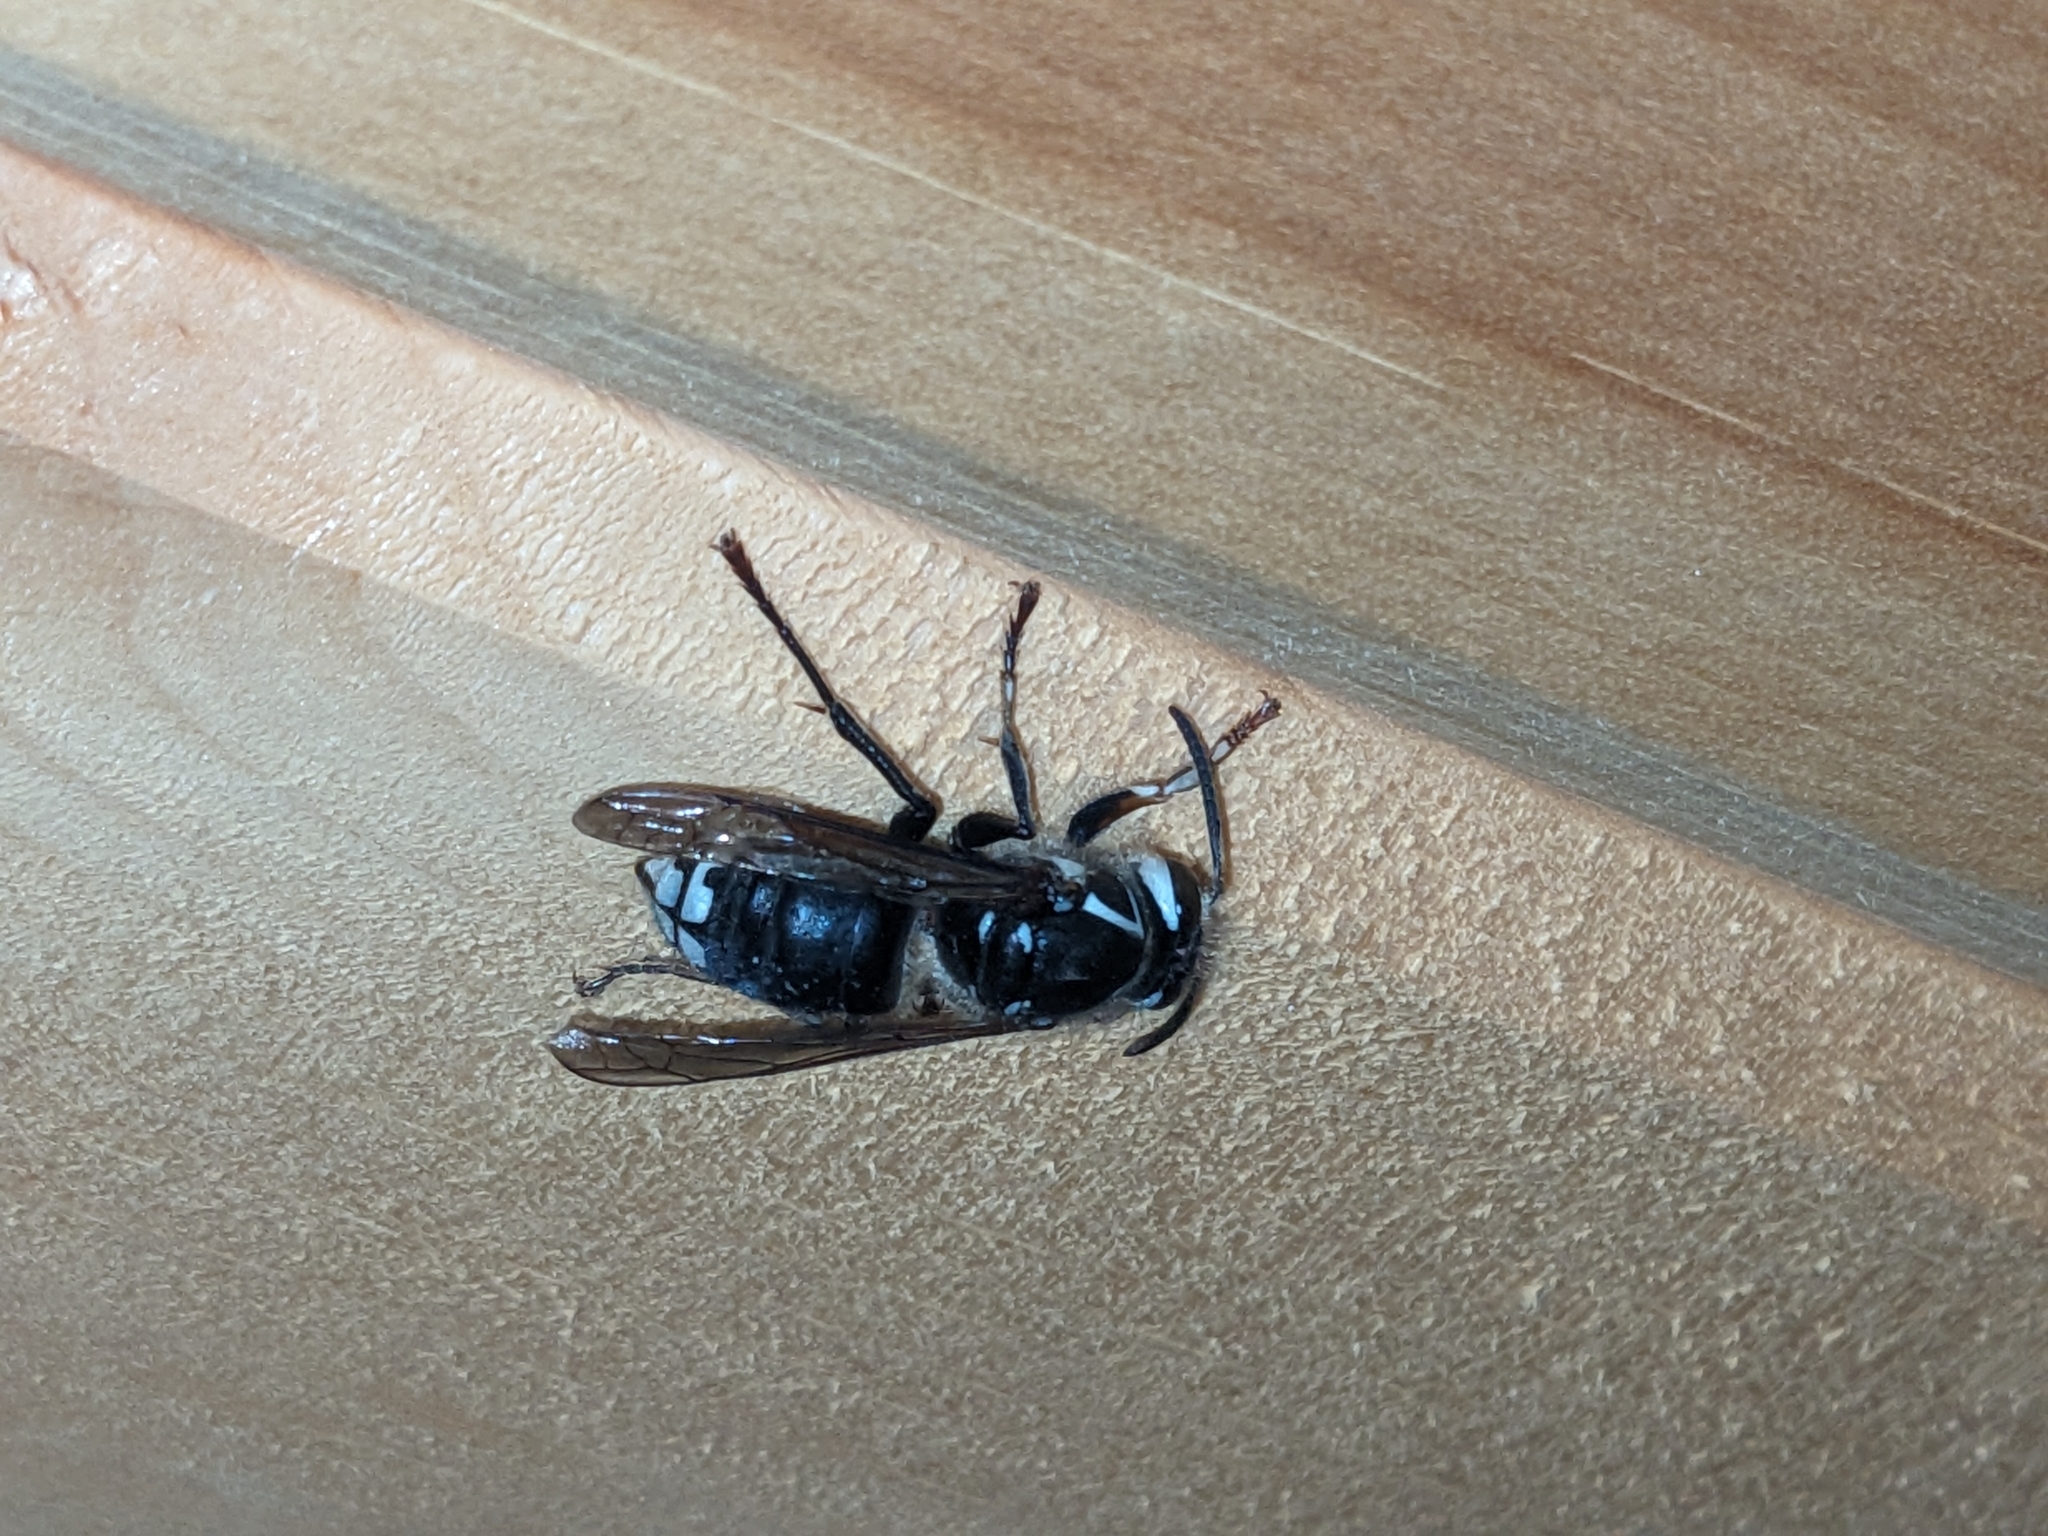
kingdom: Animalia
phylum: Arthropoda
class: Insecta
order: Hymenoptera
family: Vespidae
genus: Dolichovespula
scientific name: Dolichovespula maculata
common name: Bald-faced hornet
